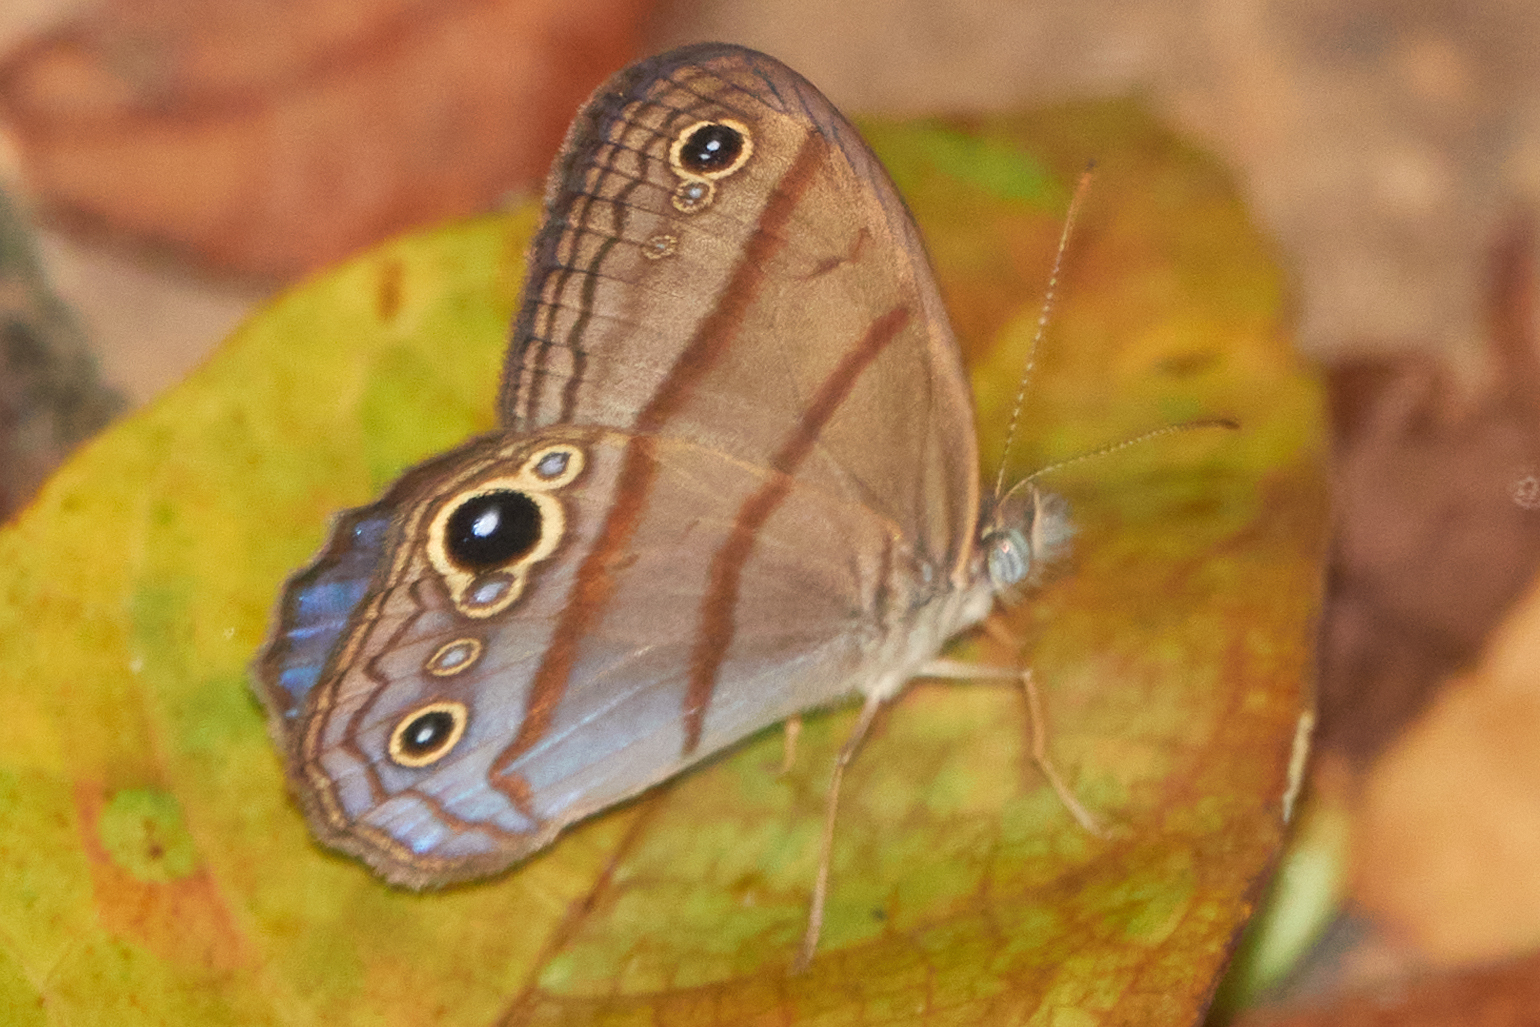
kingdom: Animalia
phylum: Arthropoda
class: Insecta
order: Lepidoptera
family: Nymphalidae
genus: Amiga
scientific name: Amiga arnaca
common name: Blue-topped satyr
